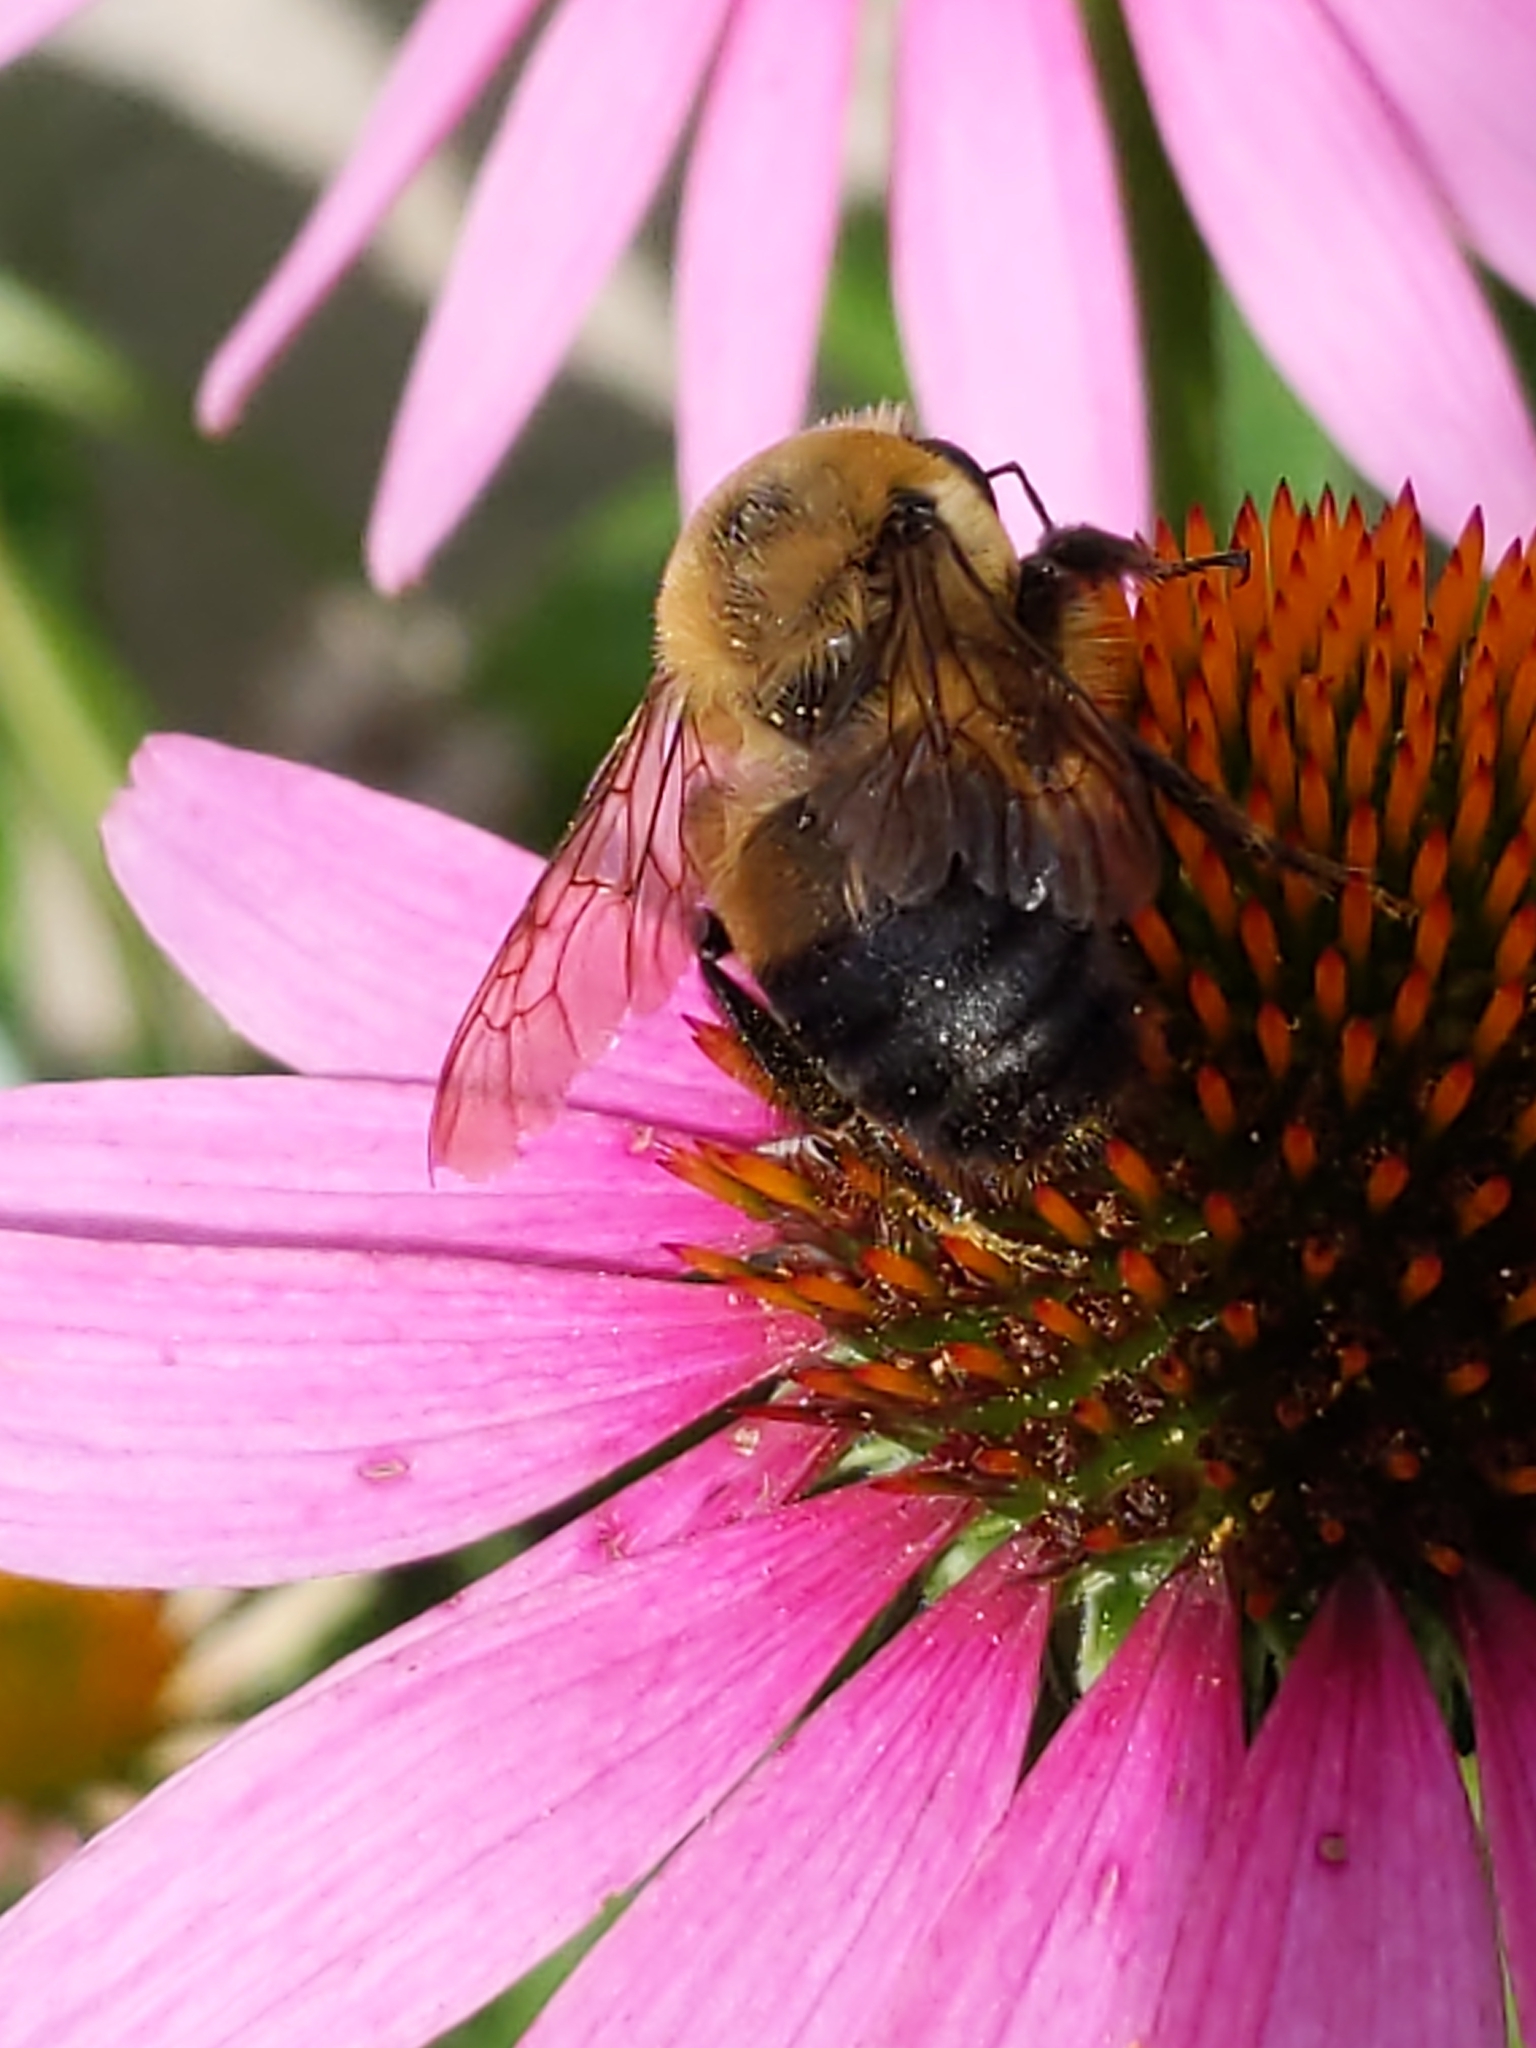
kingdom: Animalia
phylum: Arthropoda
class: Insecta
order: Hymenoptera
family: Apidae
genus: Bombus
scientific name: Bombus griseocollis
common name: Brown-belted bumble bee
